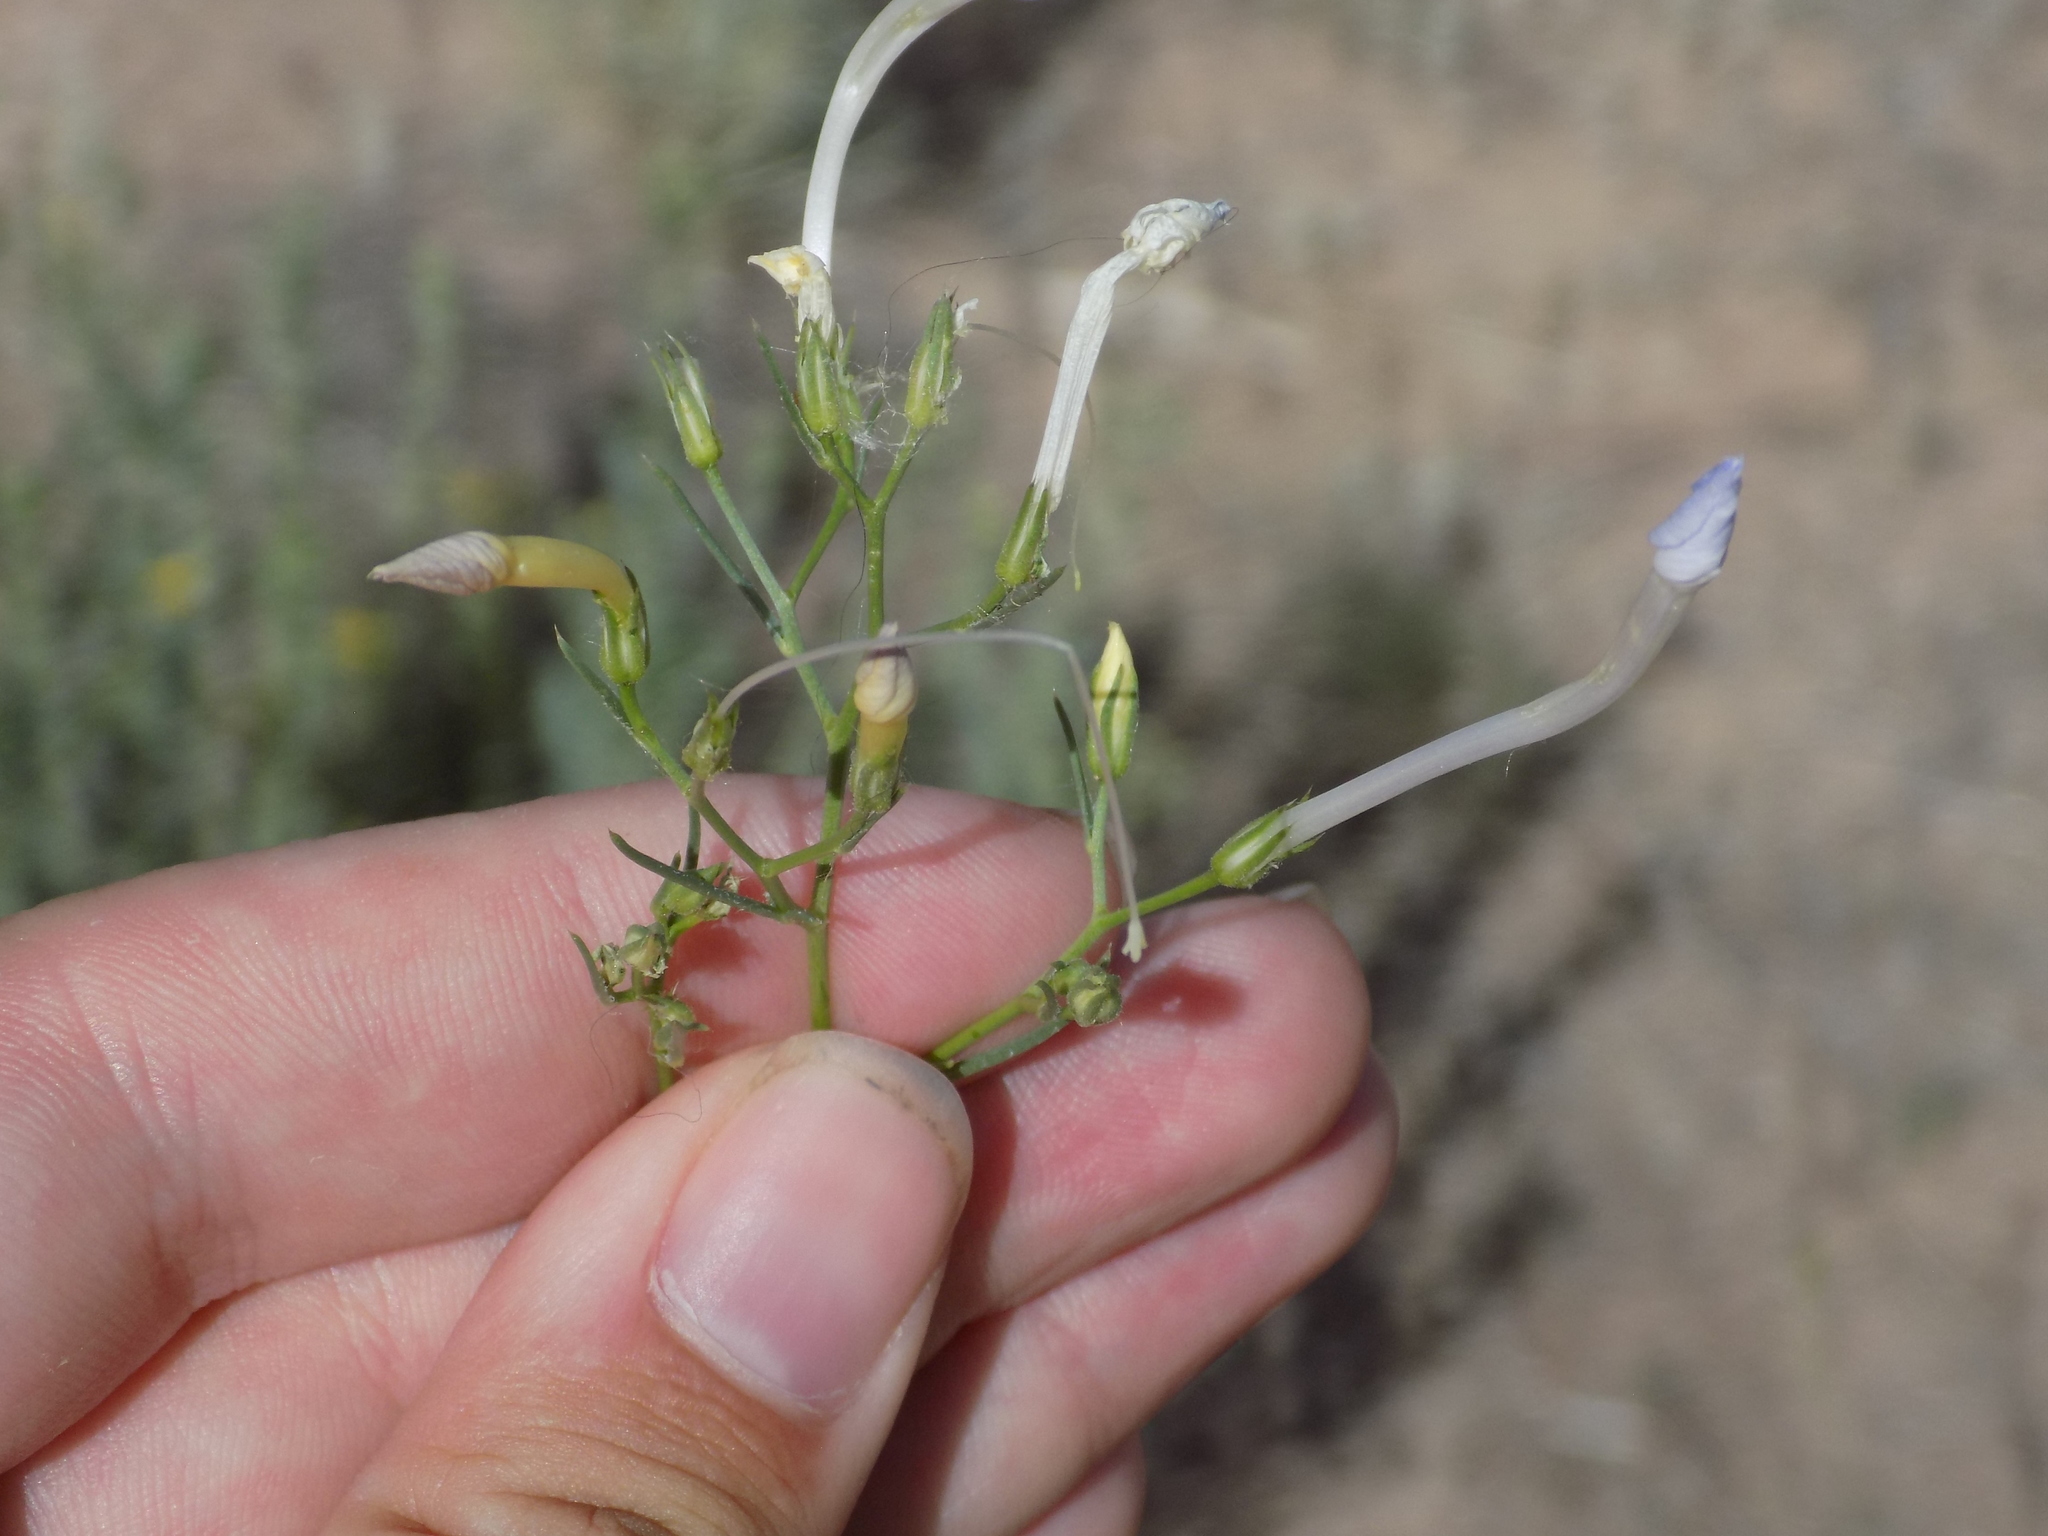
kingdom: Plantae
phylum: Tracheophyta
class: Magnoliopsida
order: Ericales
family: Polemoniaceae
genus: Ipomopsis
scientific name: Ipomopsis longiflora
